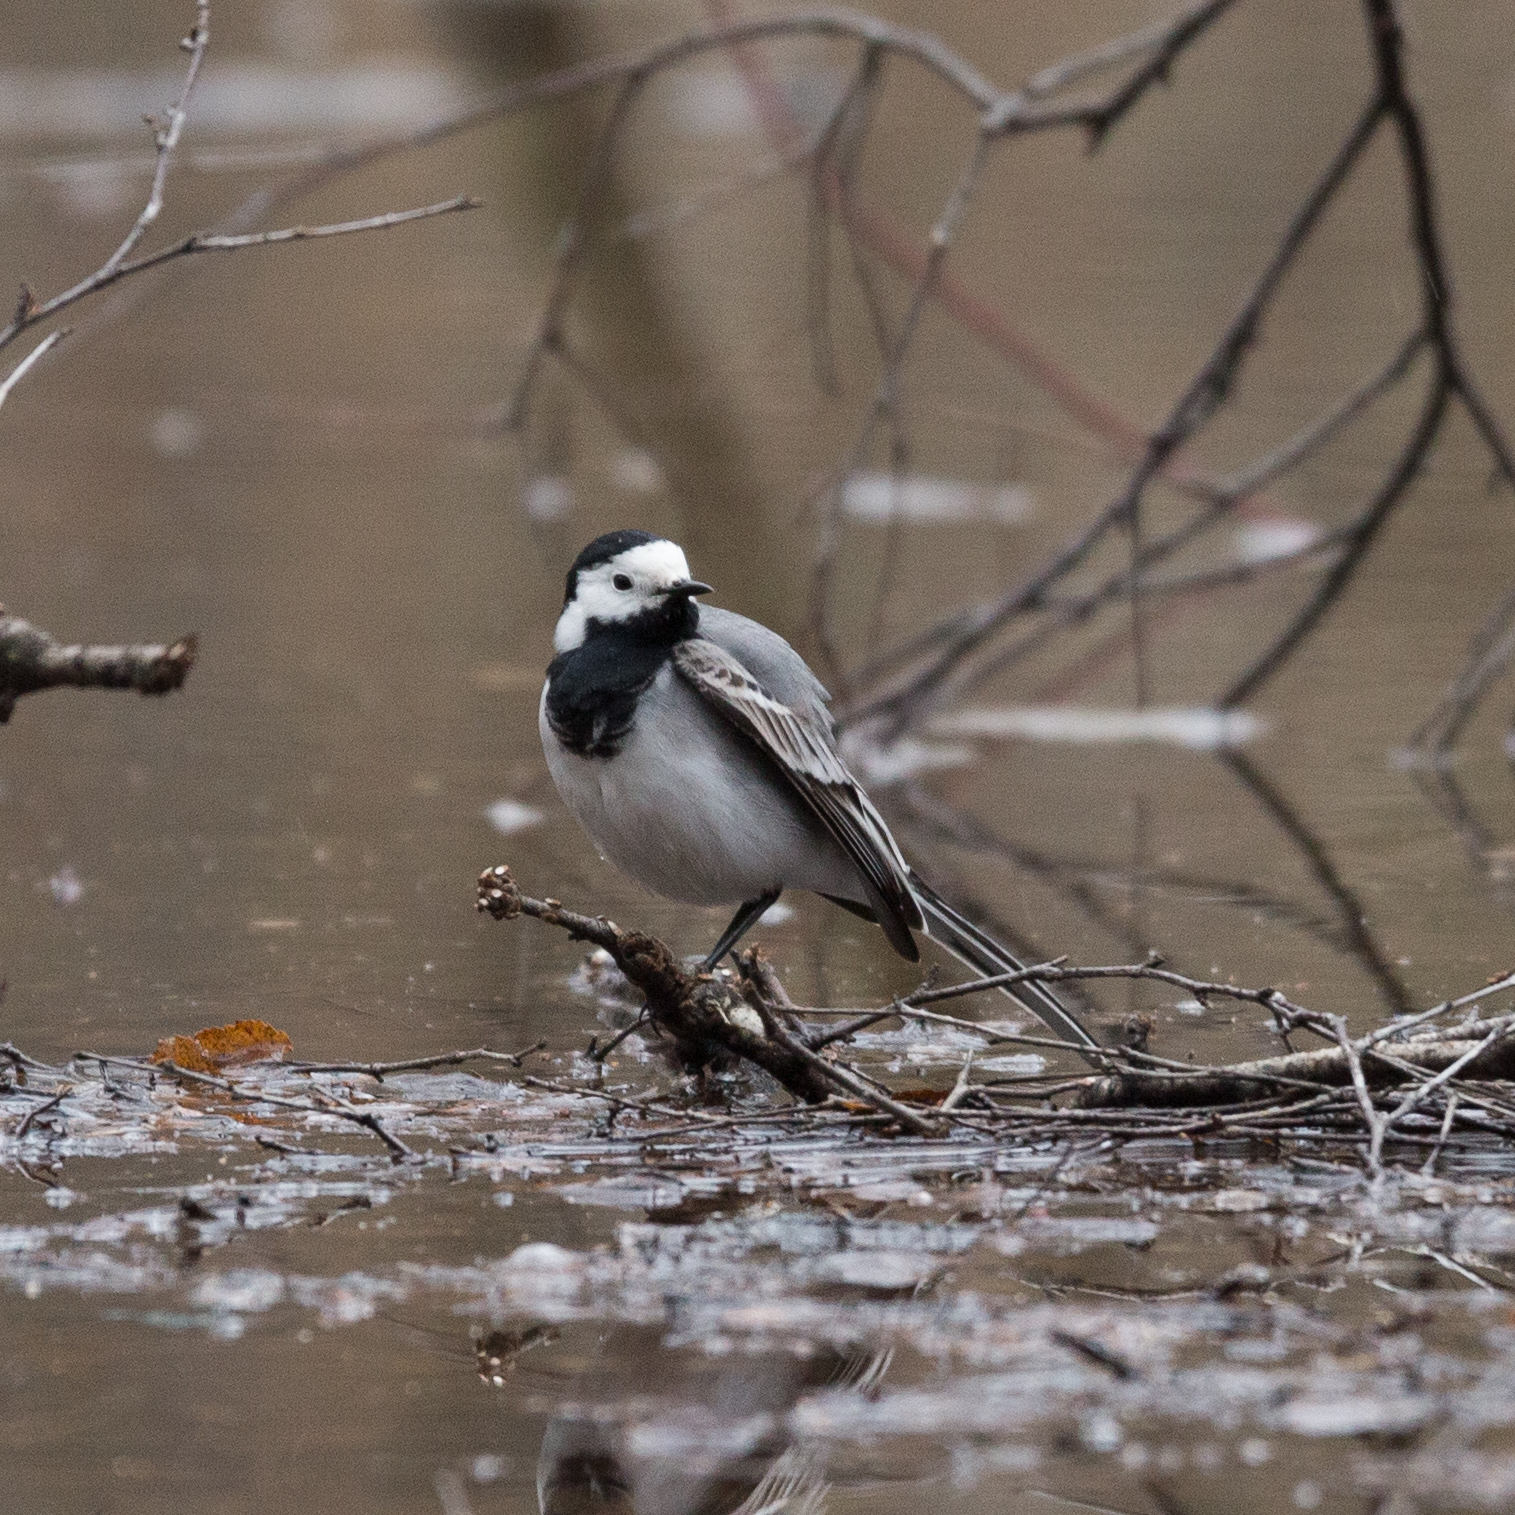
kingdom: Animalia
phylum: Chordata
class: Aves
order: Passeriformes
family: Motacillidae
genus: Motacilla
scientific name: Motacilla alba
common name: White wagtail
